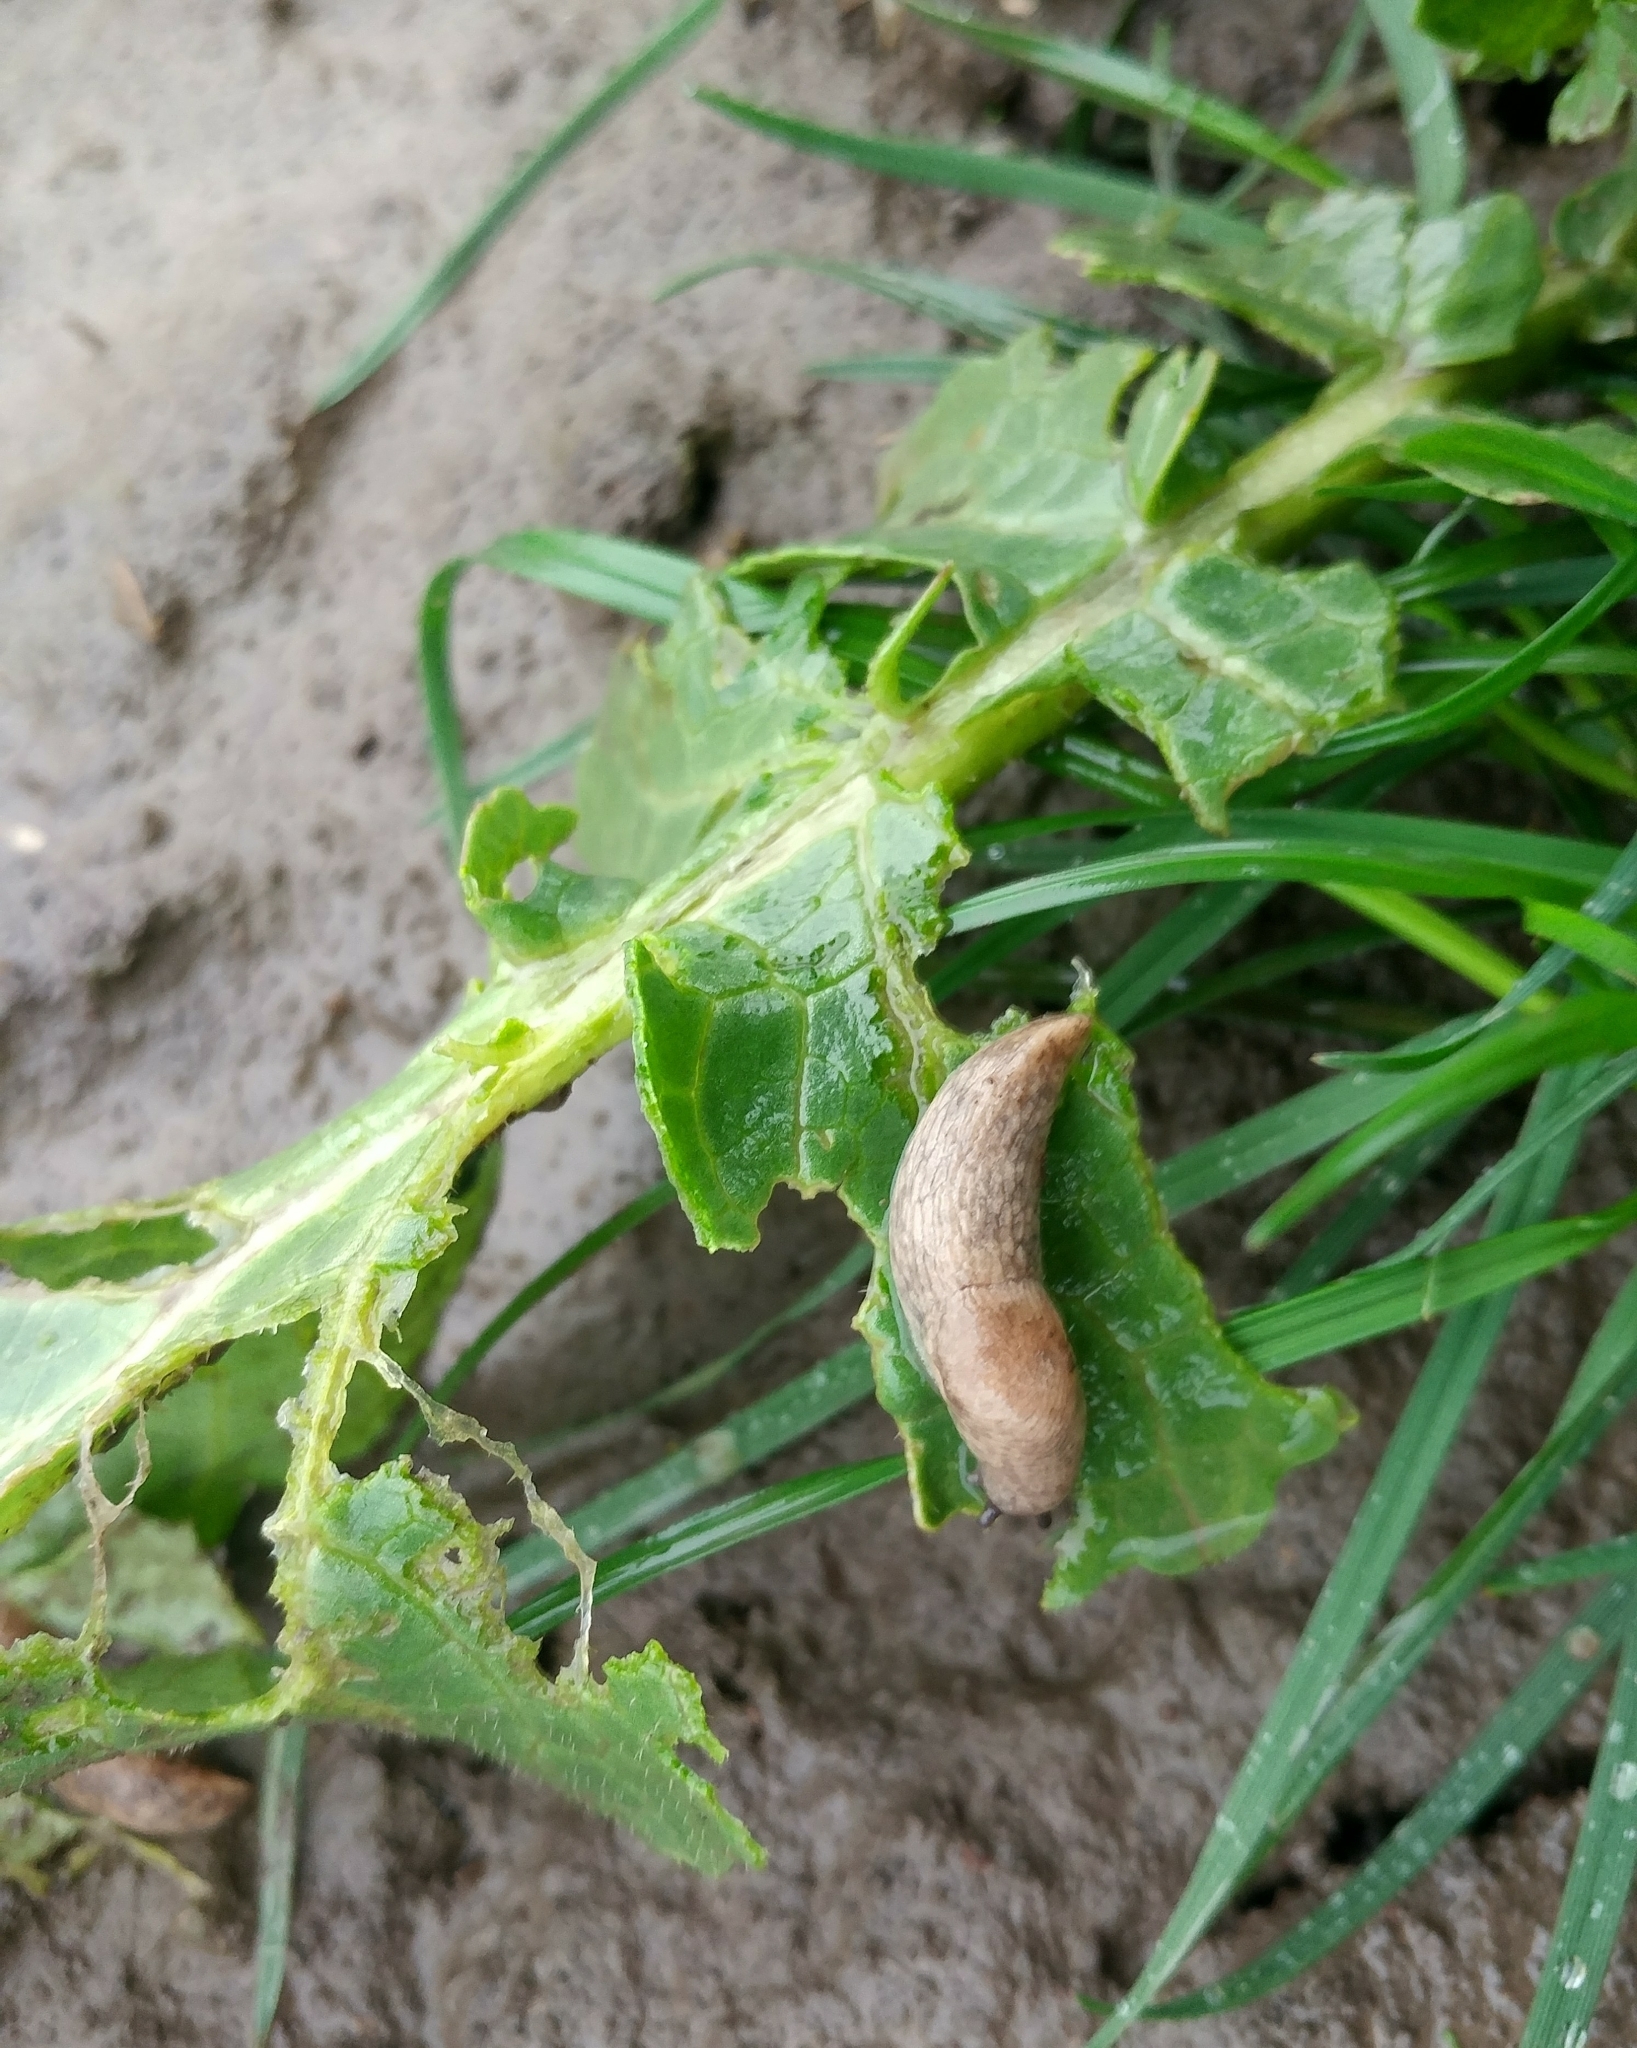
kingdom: Animalia
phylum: Mollusca
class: Gastropoda
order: Stylommatophora
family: Agriolimacidae
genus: Deroceras
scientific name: Deroceras reticulatum
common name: Gray field slug
